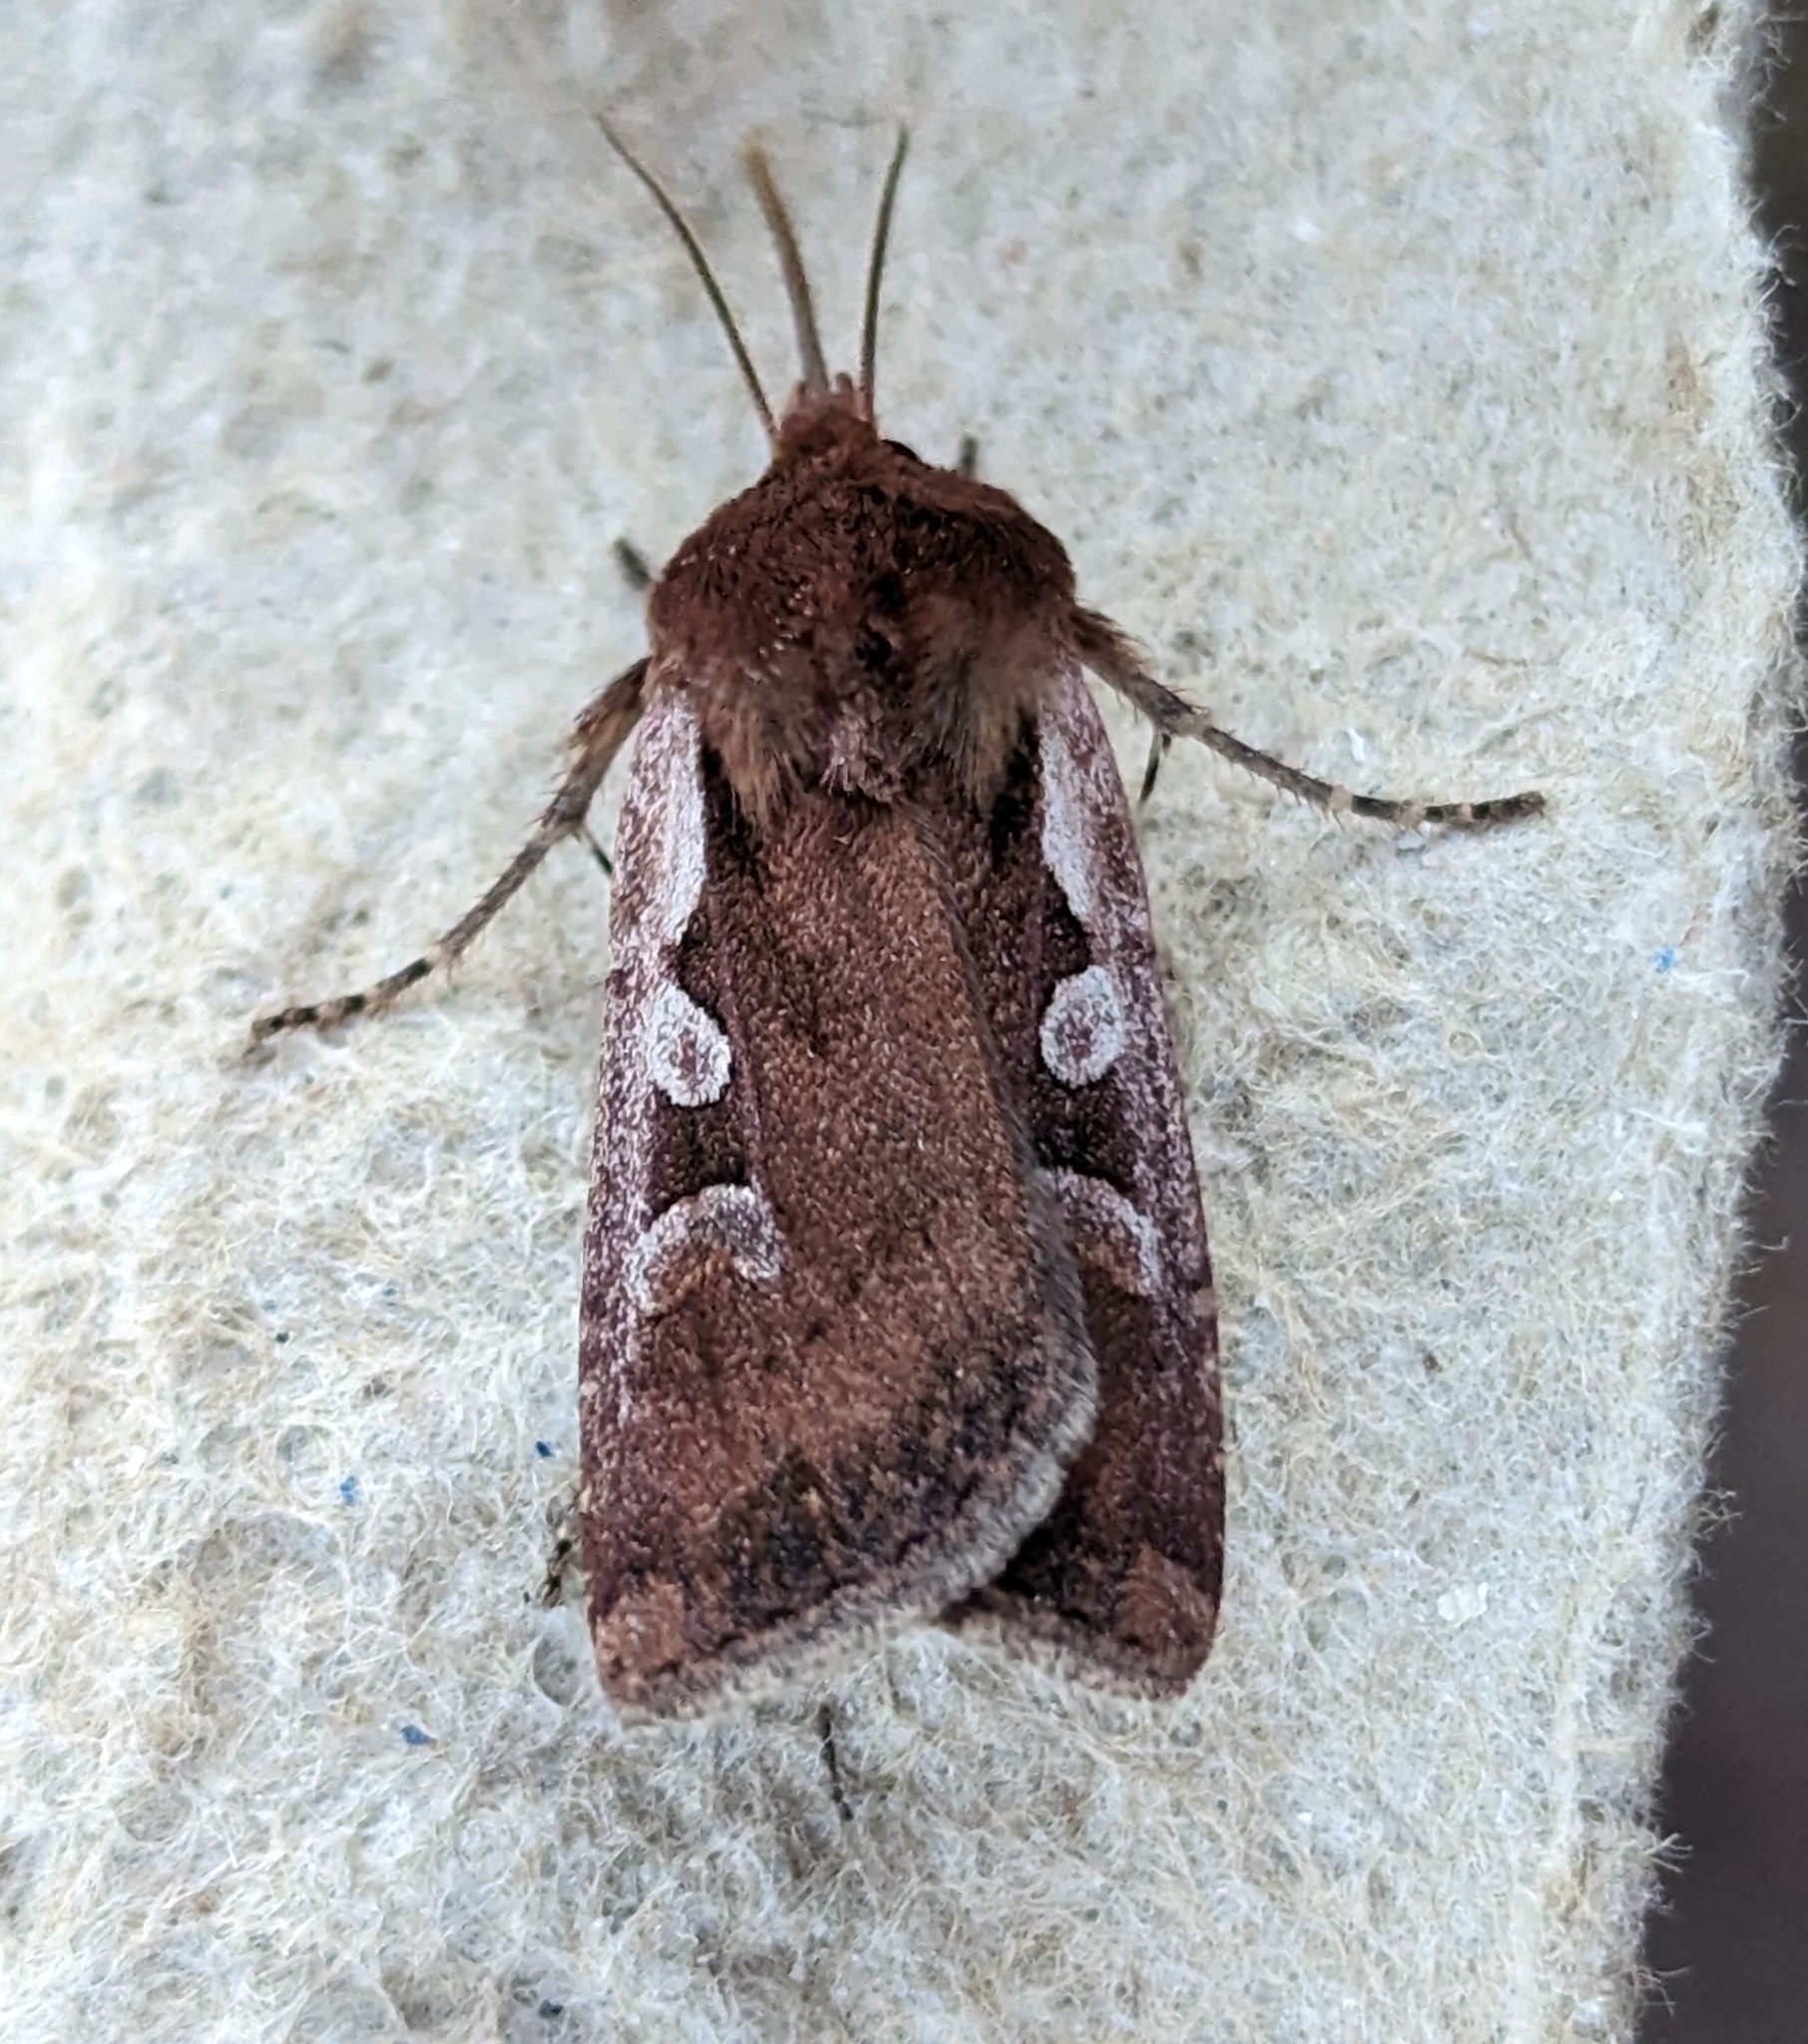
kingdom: Animalia
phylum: Arthropoda
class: Insecta
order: Lepidoptera
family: Noctuidae
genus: Euxoa
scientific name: Euxoa costata
